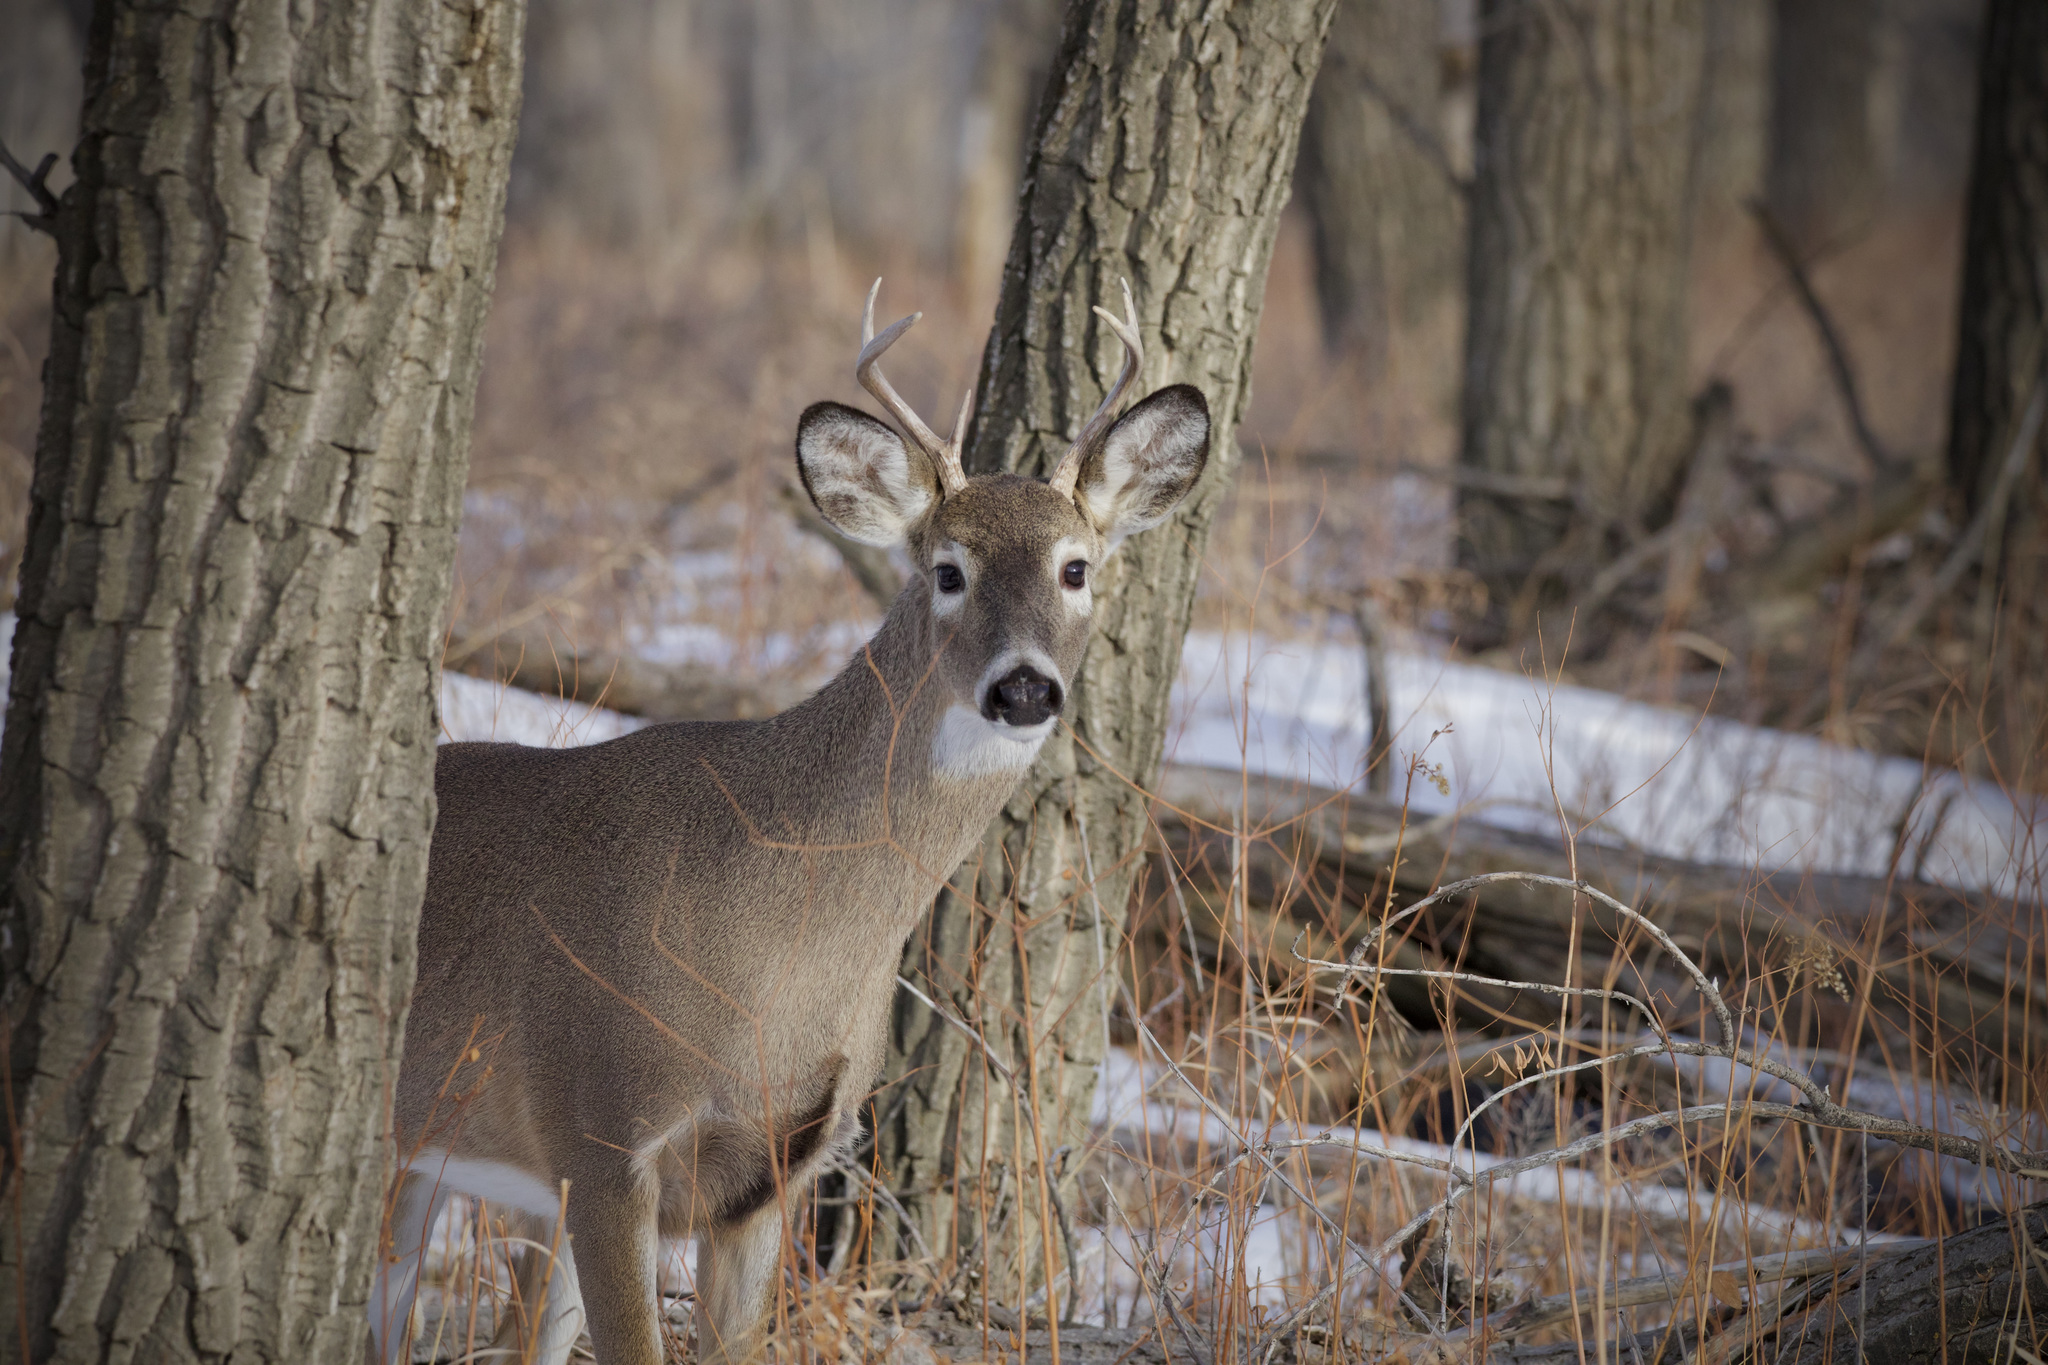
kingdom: Animalia
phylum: Chordata
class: Mammalia
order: Artiodactyla
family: Cervidae
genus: Odocoileus
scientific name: Odocoileus virginianus
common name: White-tailed deer
